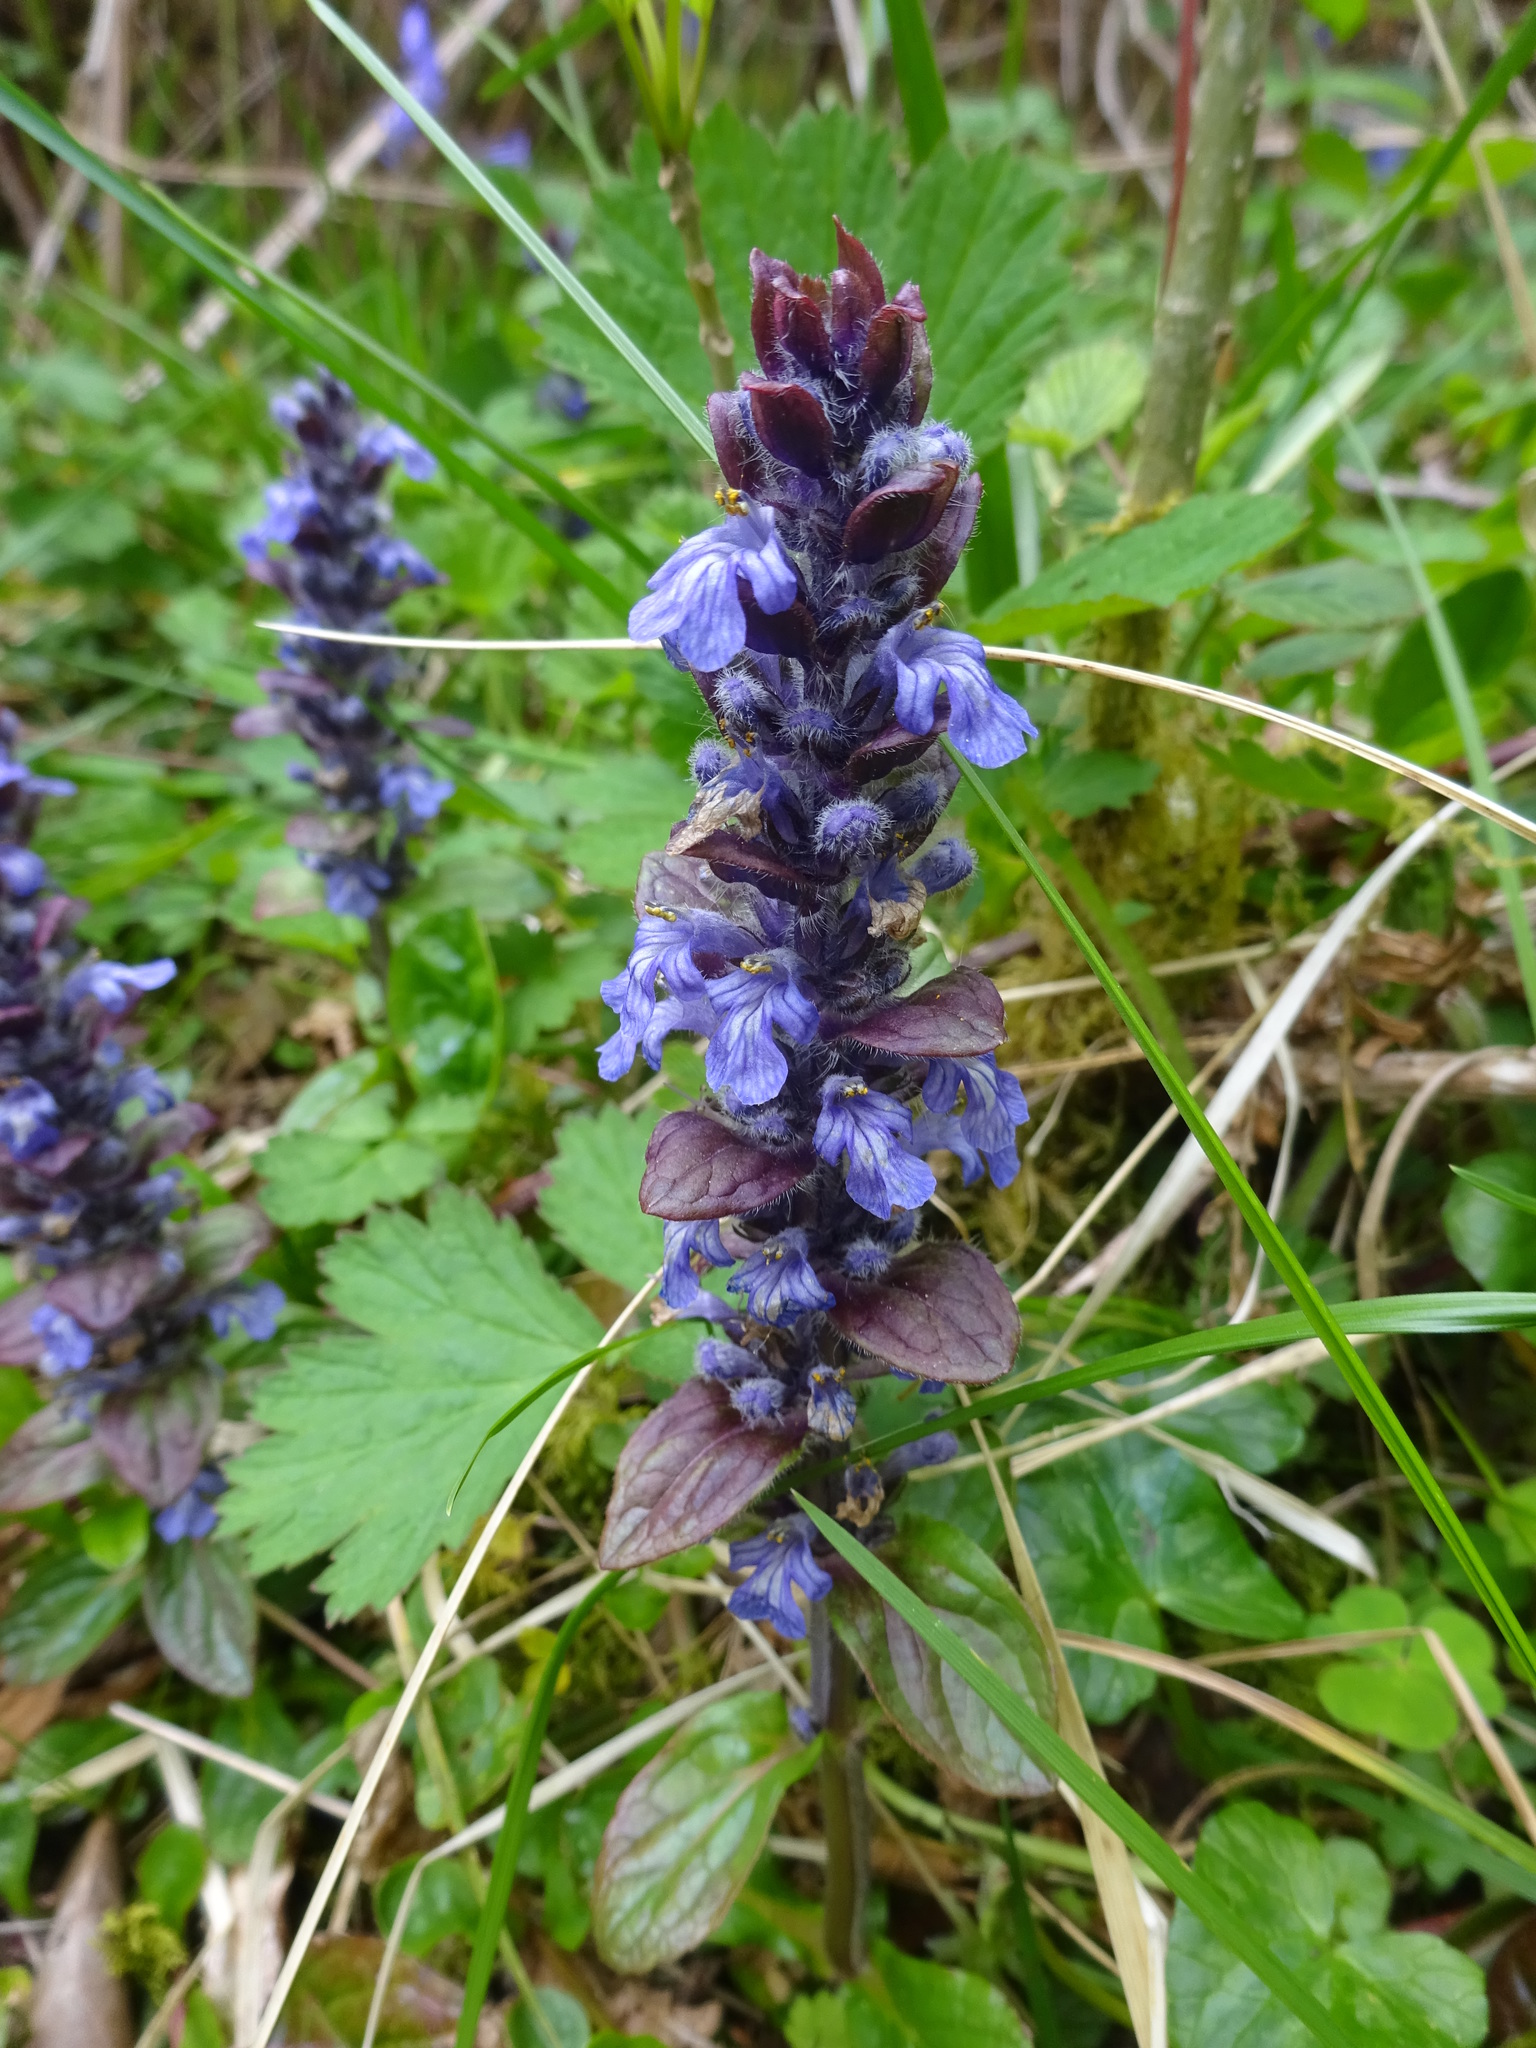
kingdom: Plantae
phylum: Tracheophyta
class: Magnoliopsida
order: Lamiales
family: Lamiaceae
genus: Ajuga
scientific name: Ajuga reptans
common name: Bugle
